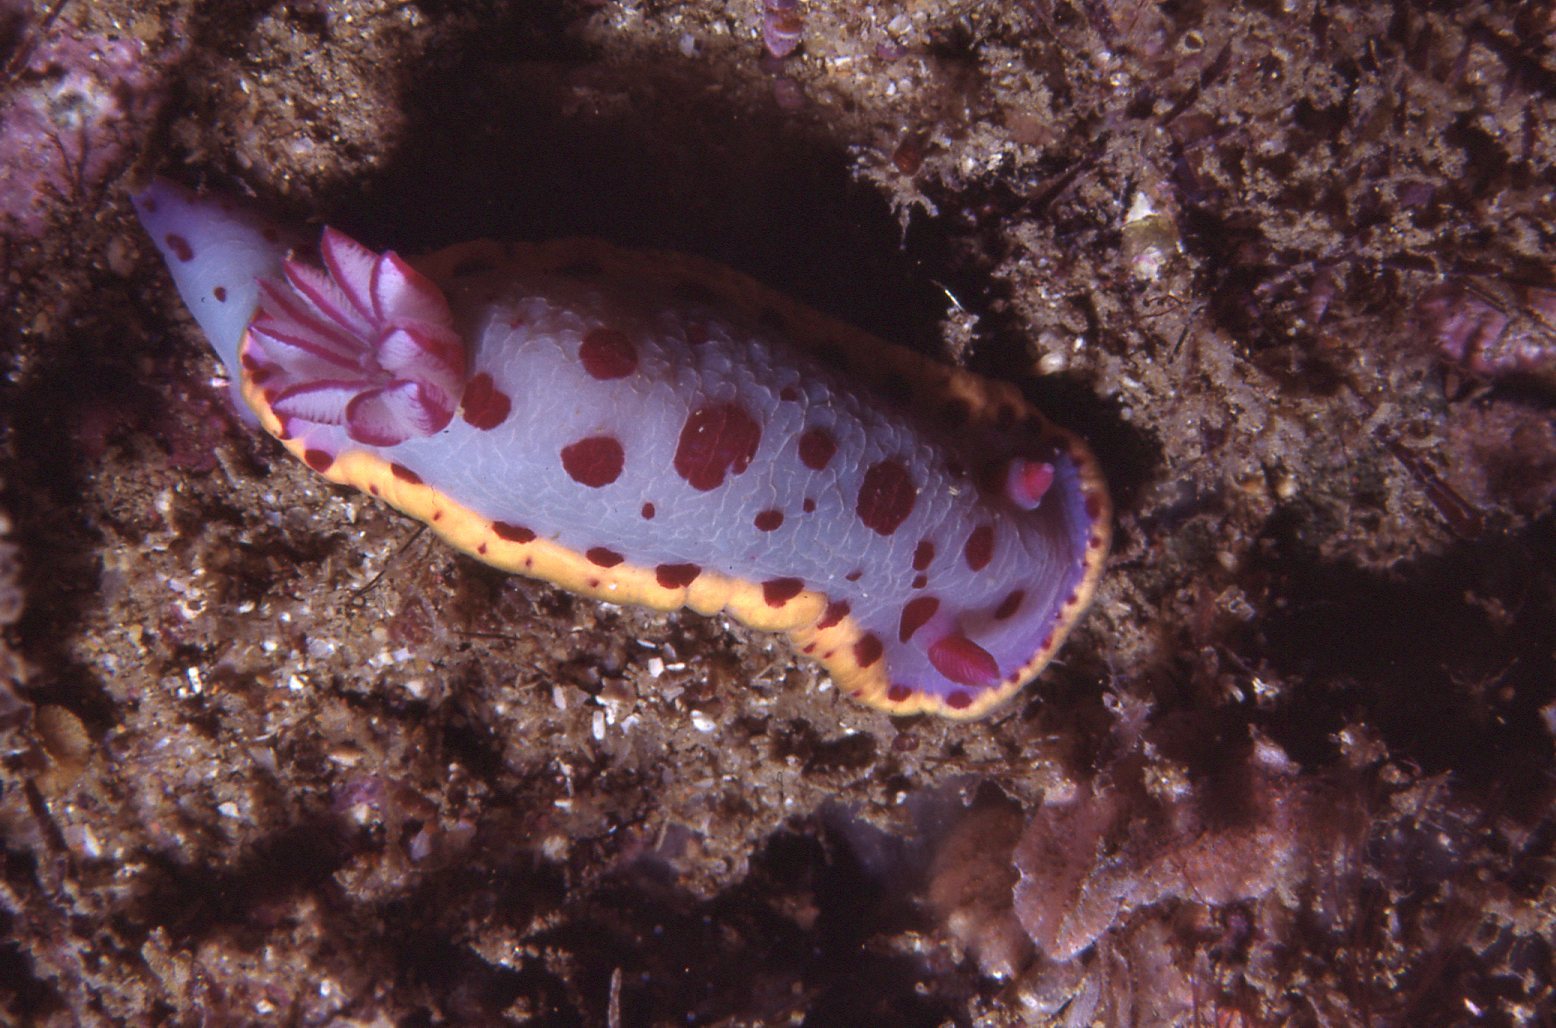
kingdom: Animalia
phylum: Mollusca
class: Gastropoda
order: Nudibranchia
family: Chromodorididae
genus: Hypselodoris
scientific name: Hypselodoris bennetti
